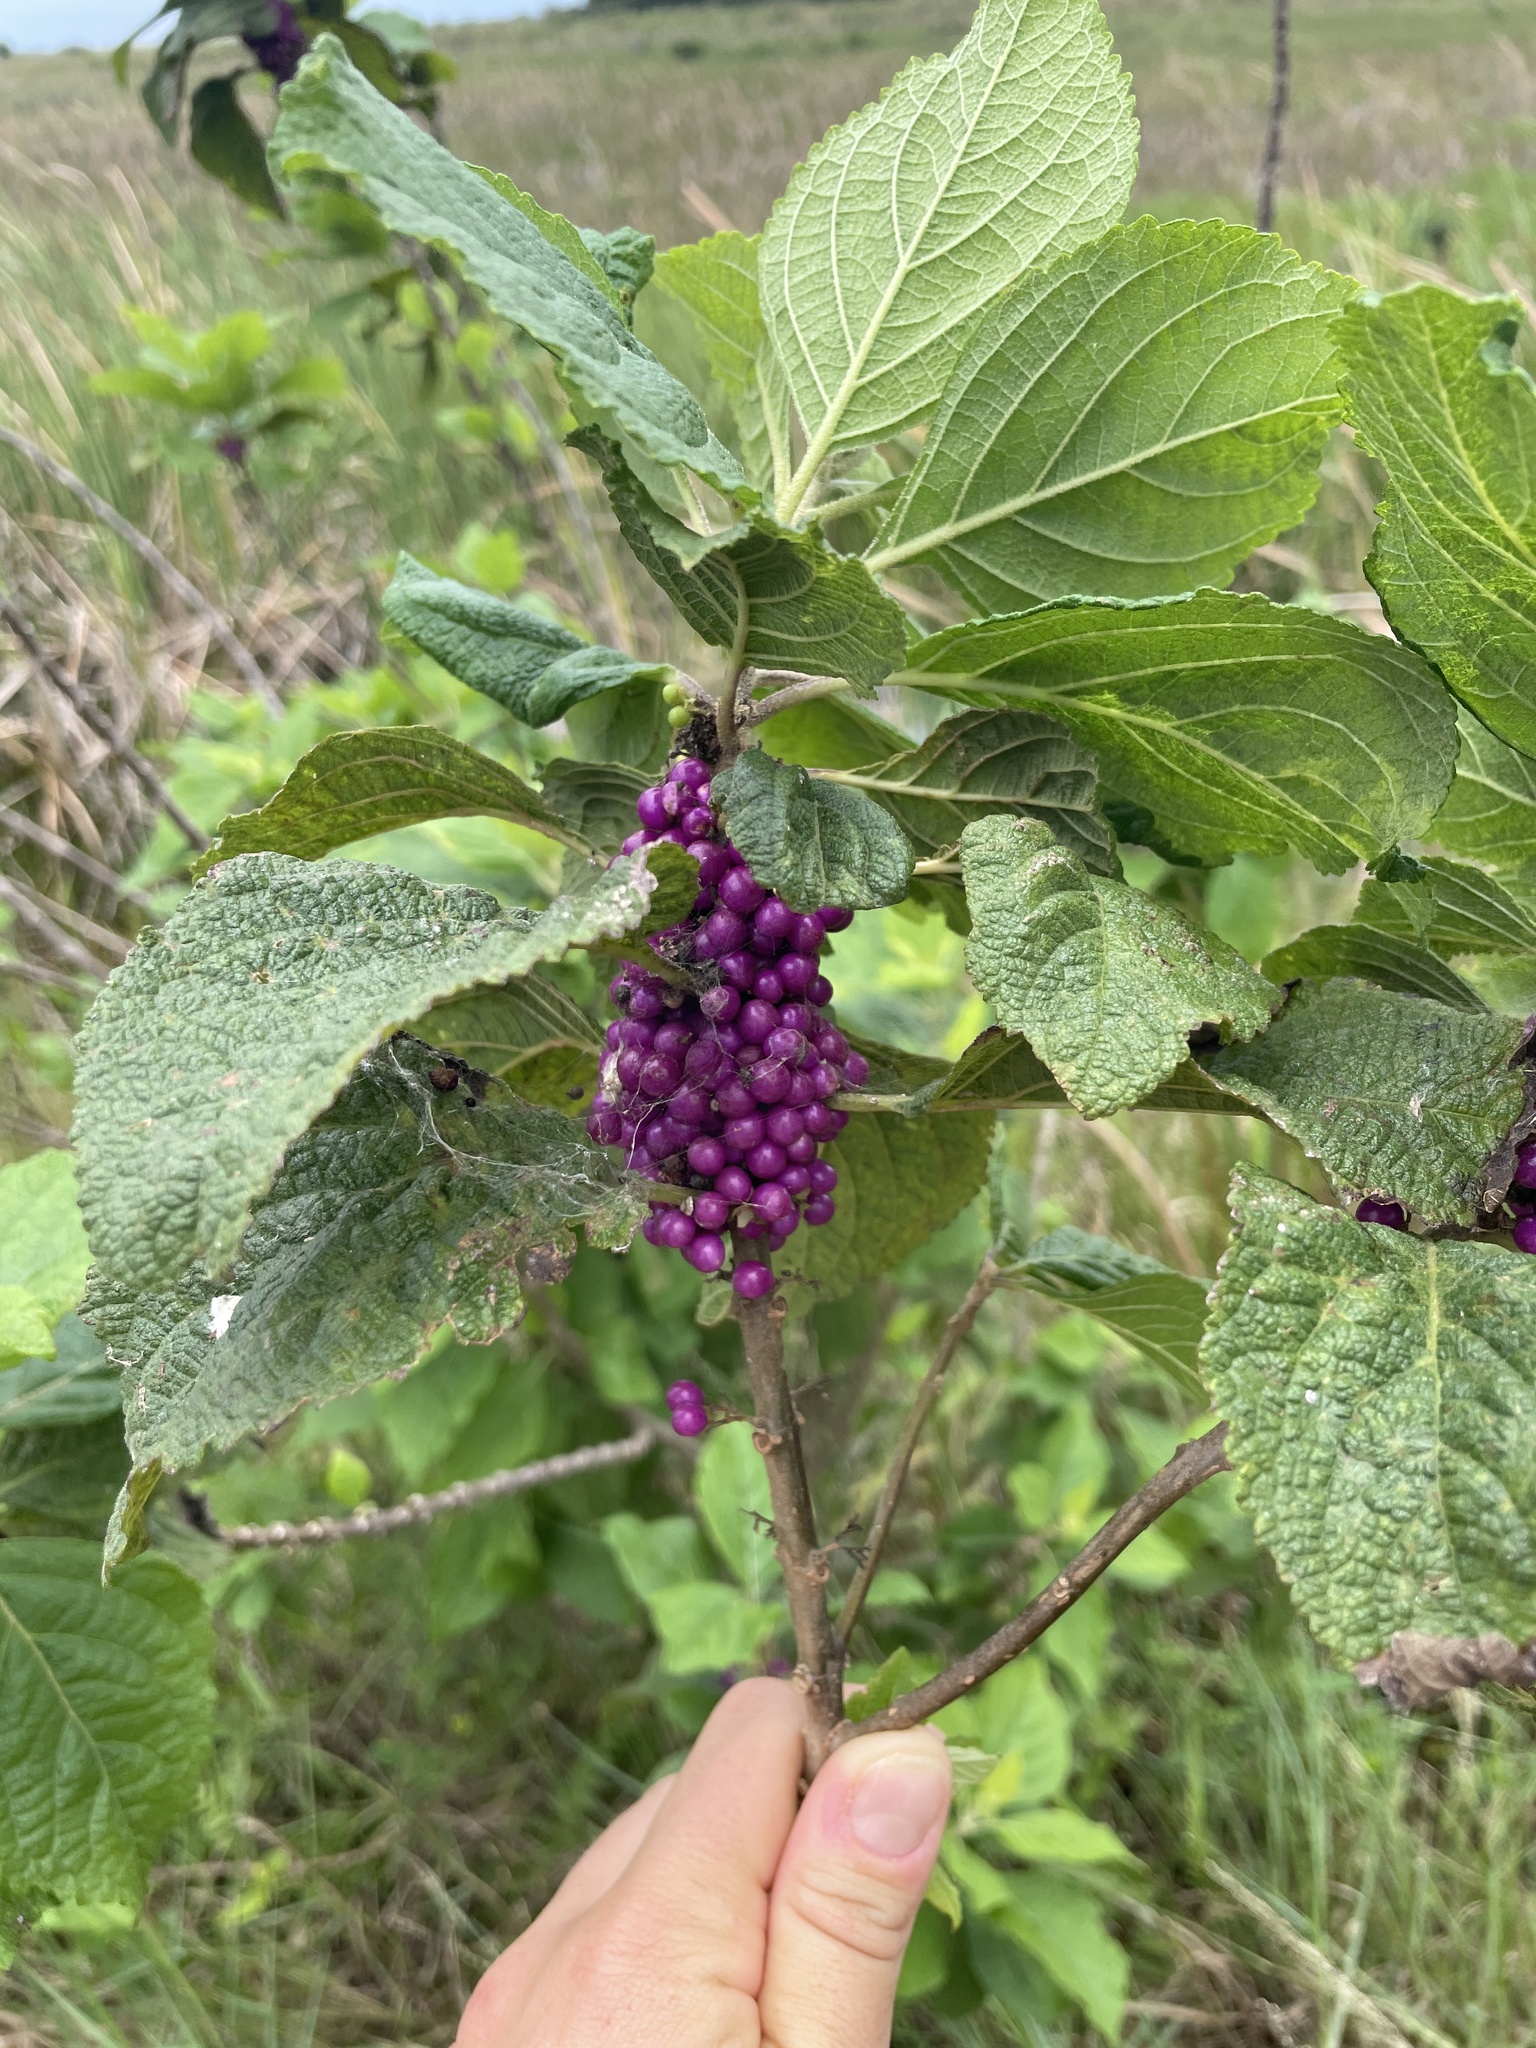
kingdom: Plantae
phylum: Tracheophyta
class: Magnoliopsida
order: Lamiales
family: Lamiaceae
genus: Callicarpa
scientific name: Callicarpa americana
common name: American beautyberry
